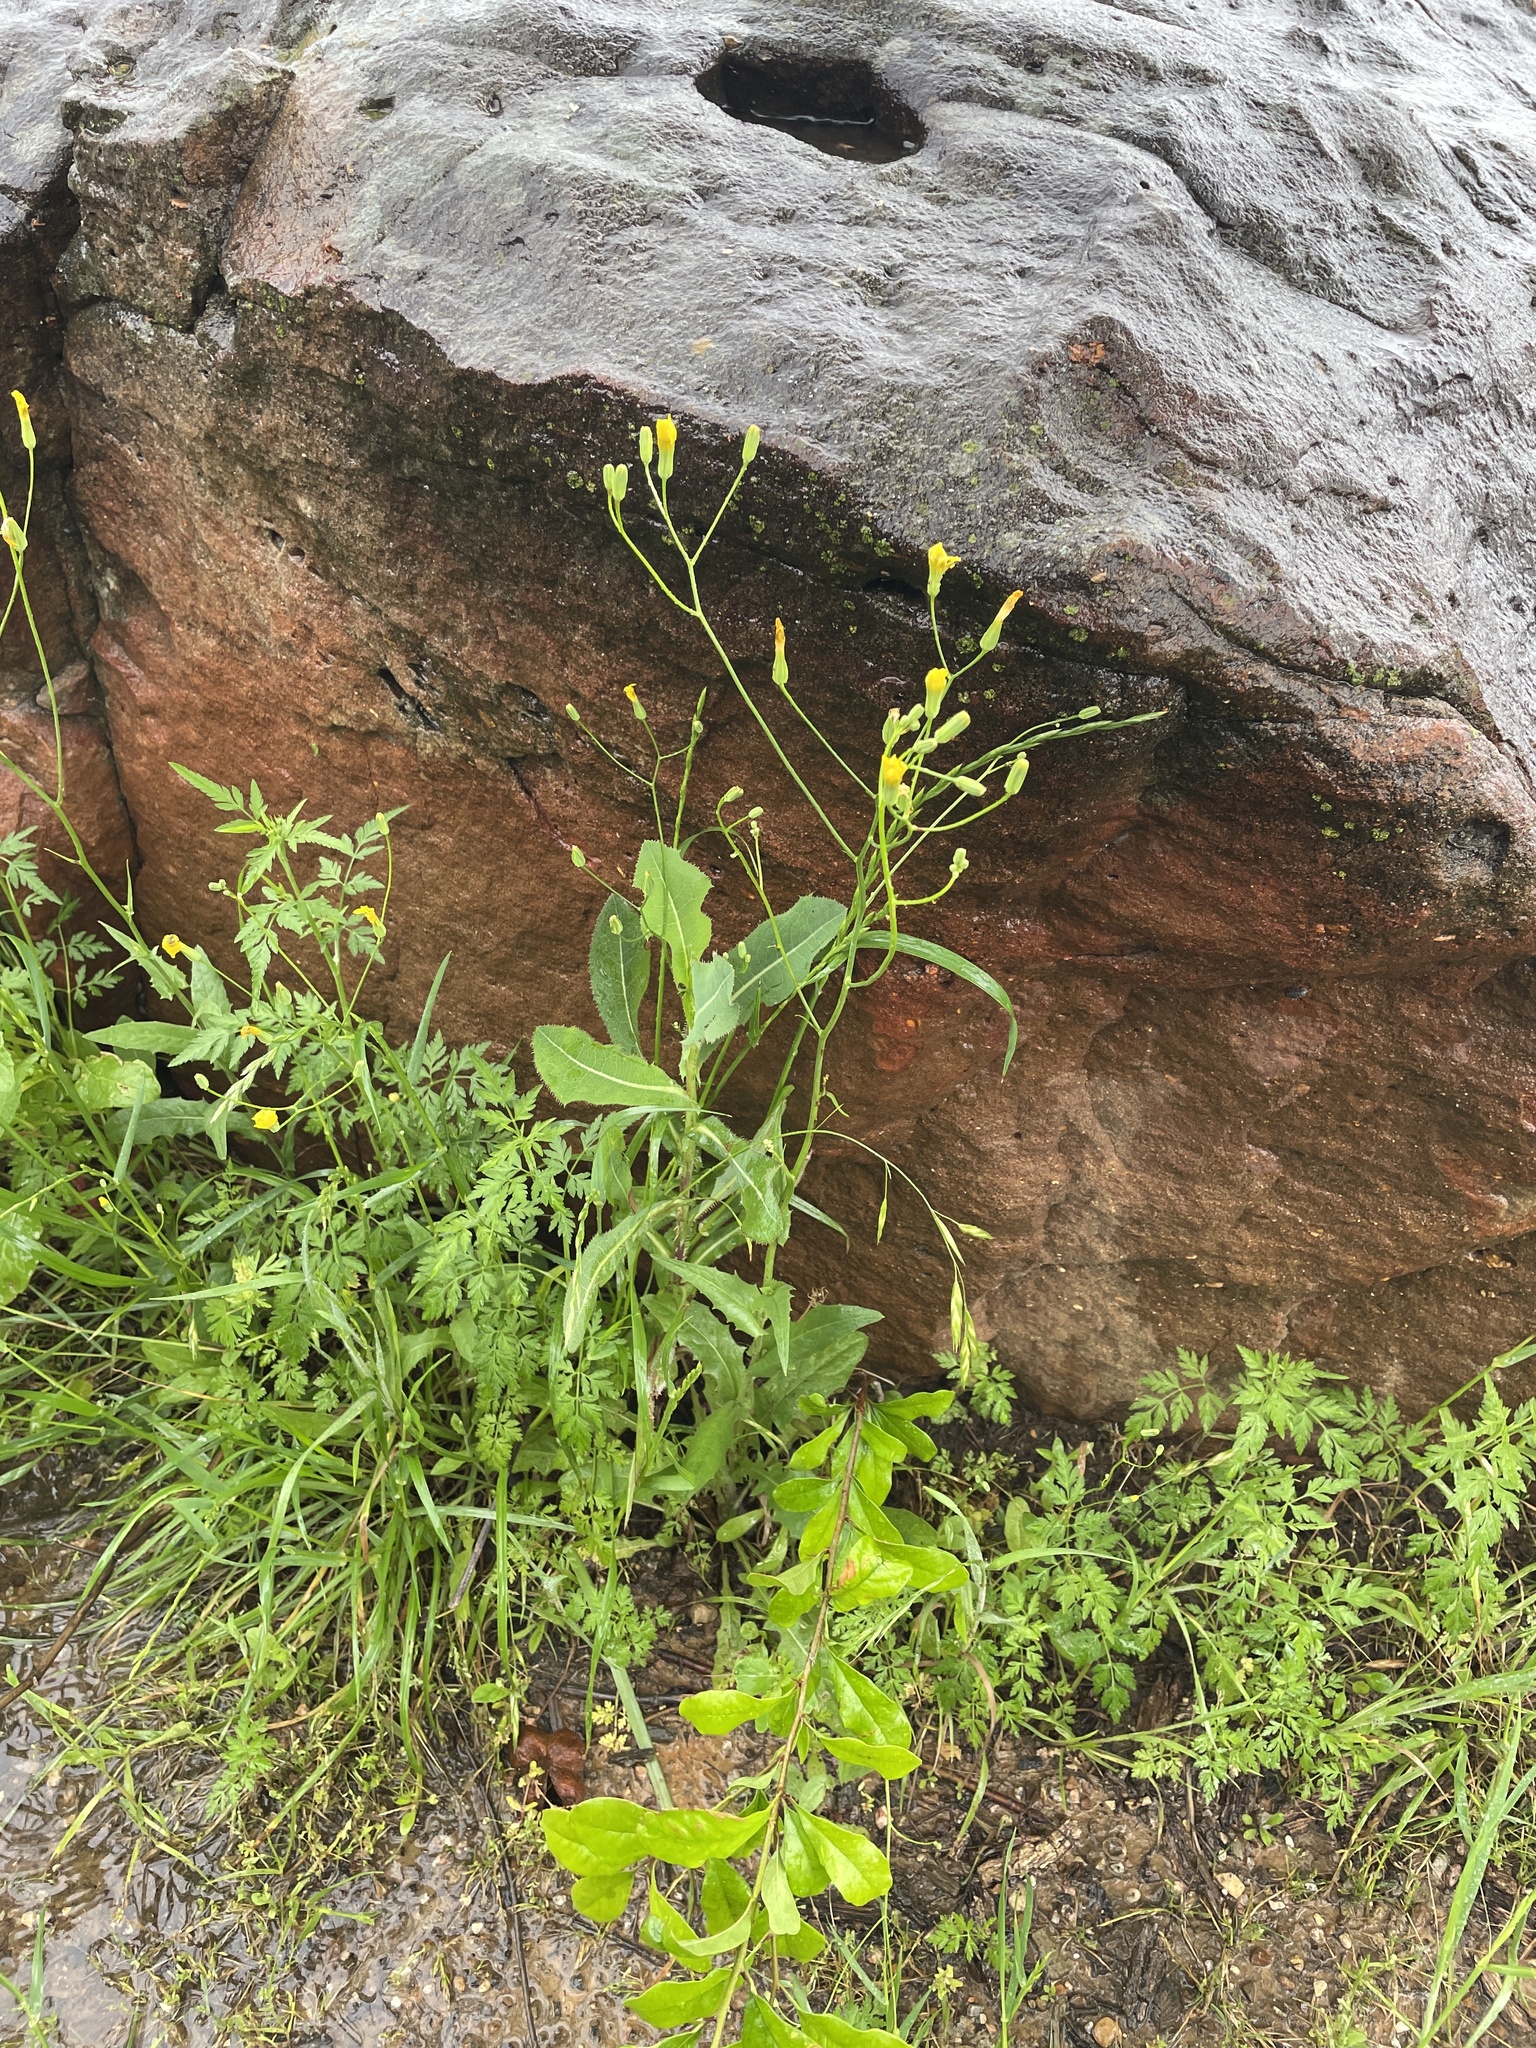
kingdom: Plantae
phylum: Tracheophyta
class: Magnoliopsida
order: Asterales
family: Asteraceae
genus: Crepis
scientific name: Crepis pulchra
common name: Hawk's-beard
